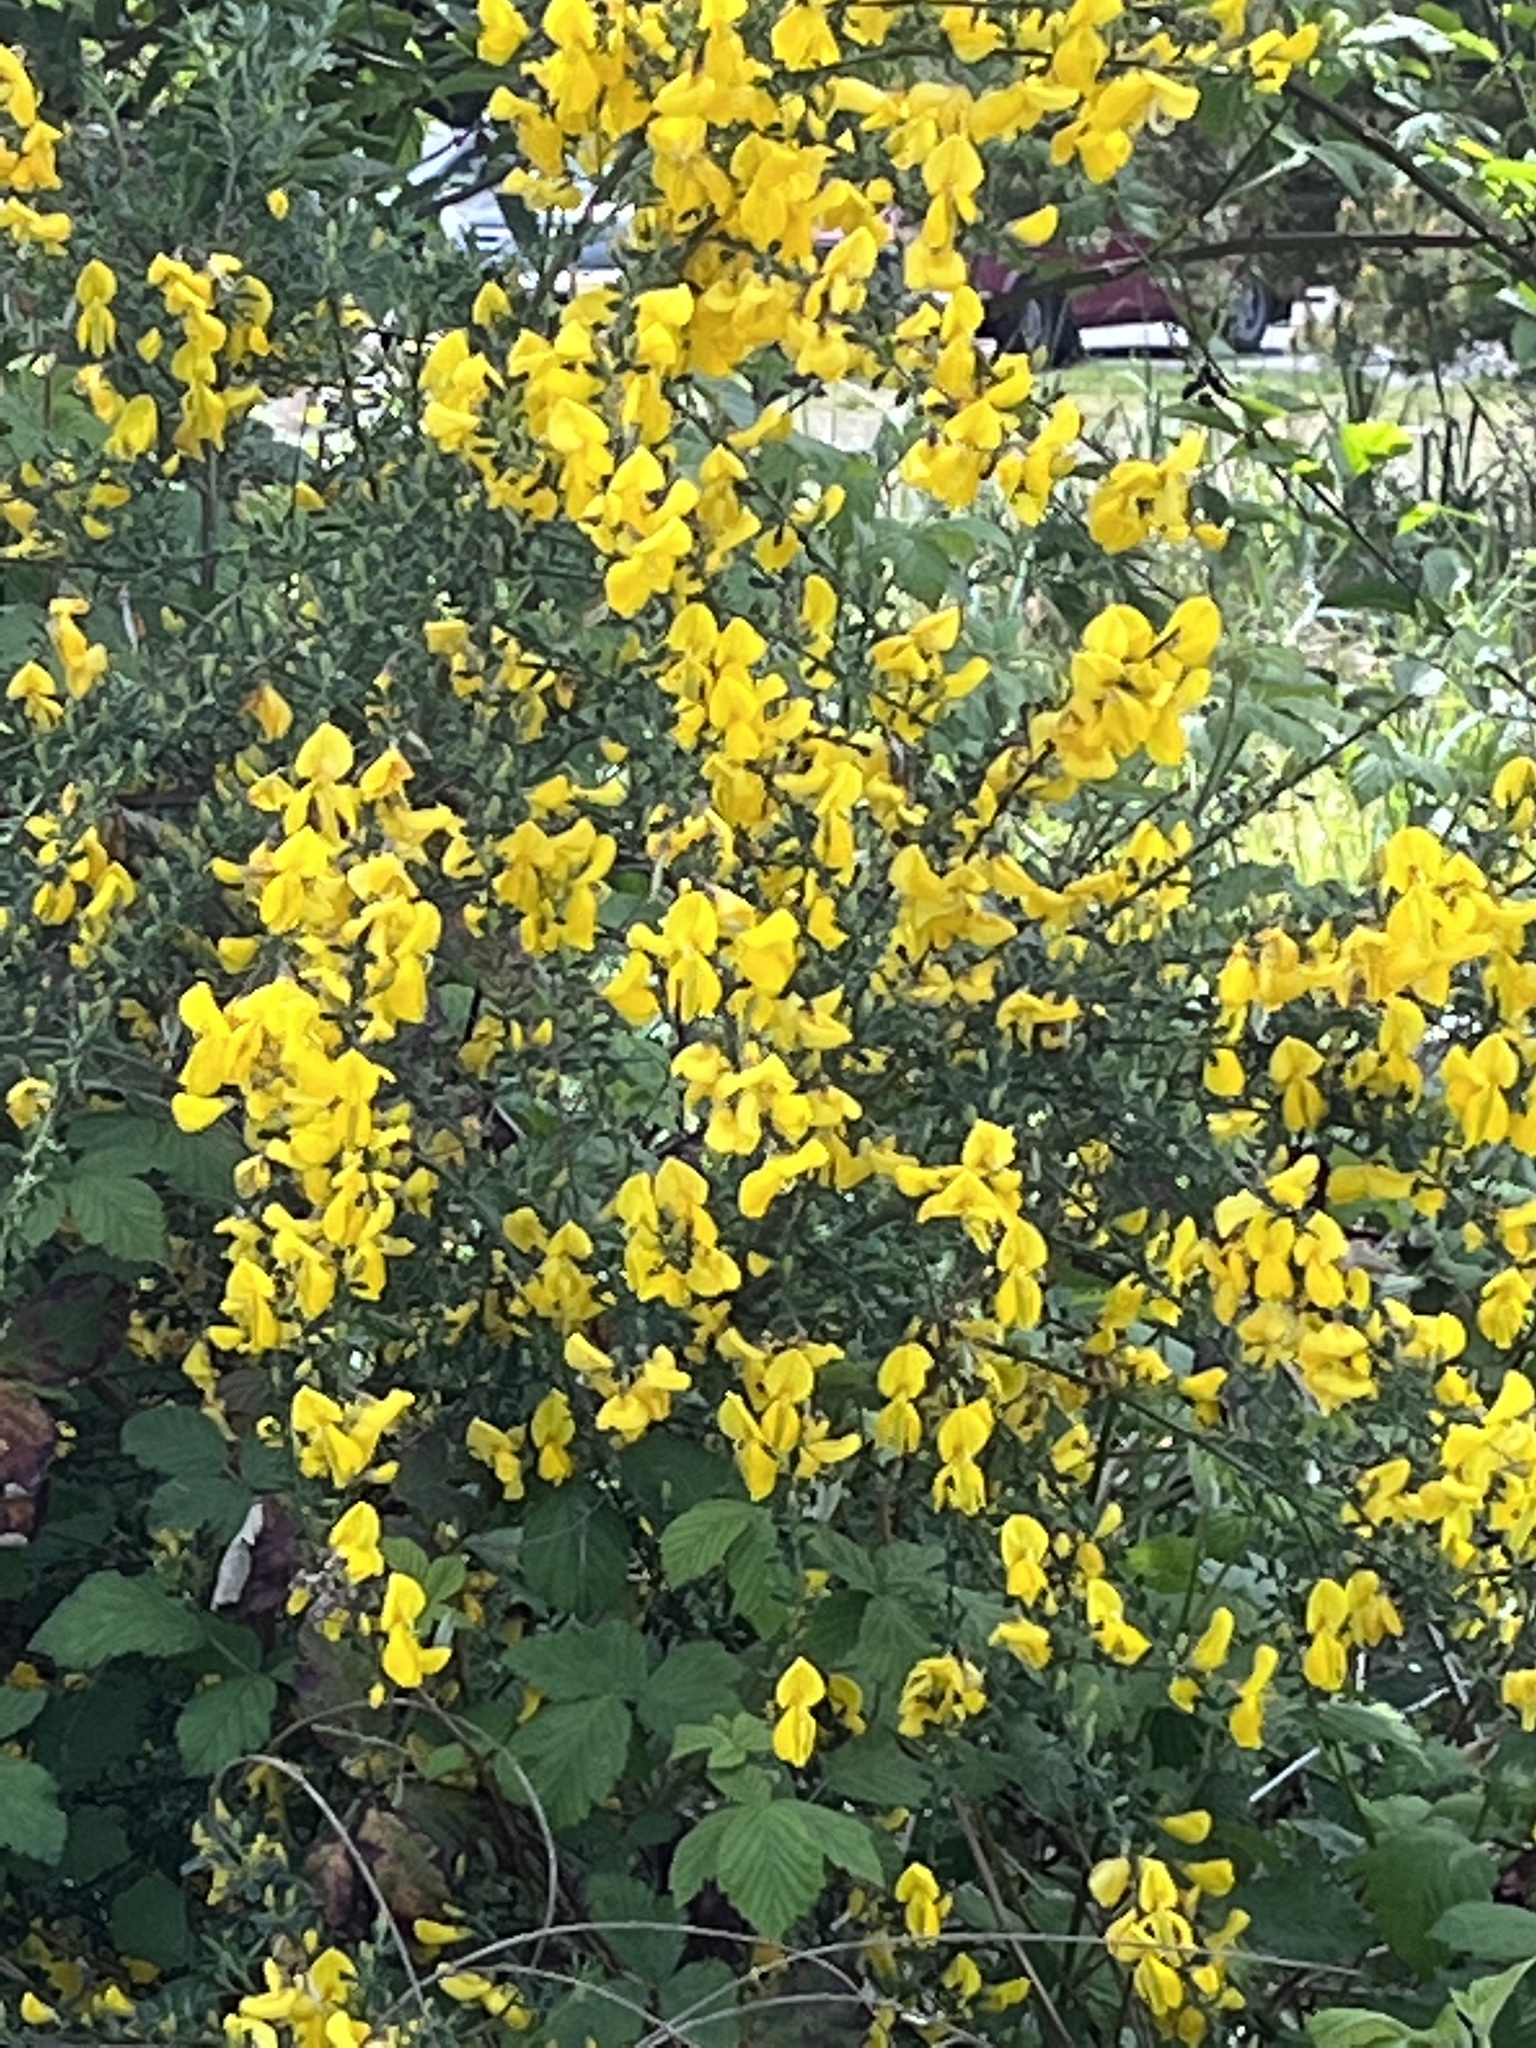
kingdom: Plantae
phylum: Tracheophyta
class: Magnoliopsida
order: Fabales
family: Fabaceae
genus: Cytisus
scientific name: Cytisus scoparius
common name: Scotch broom
